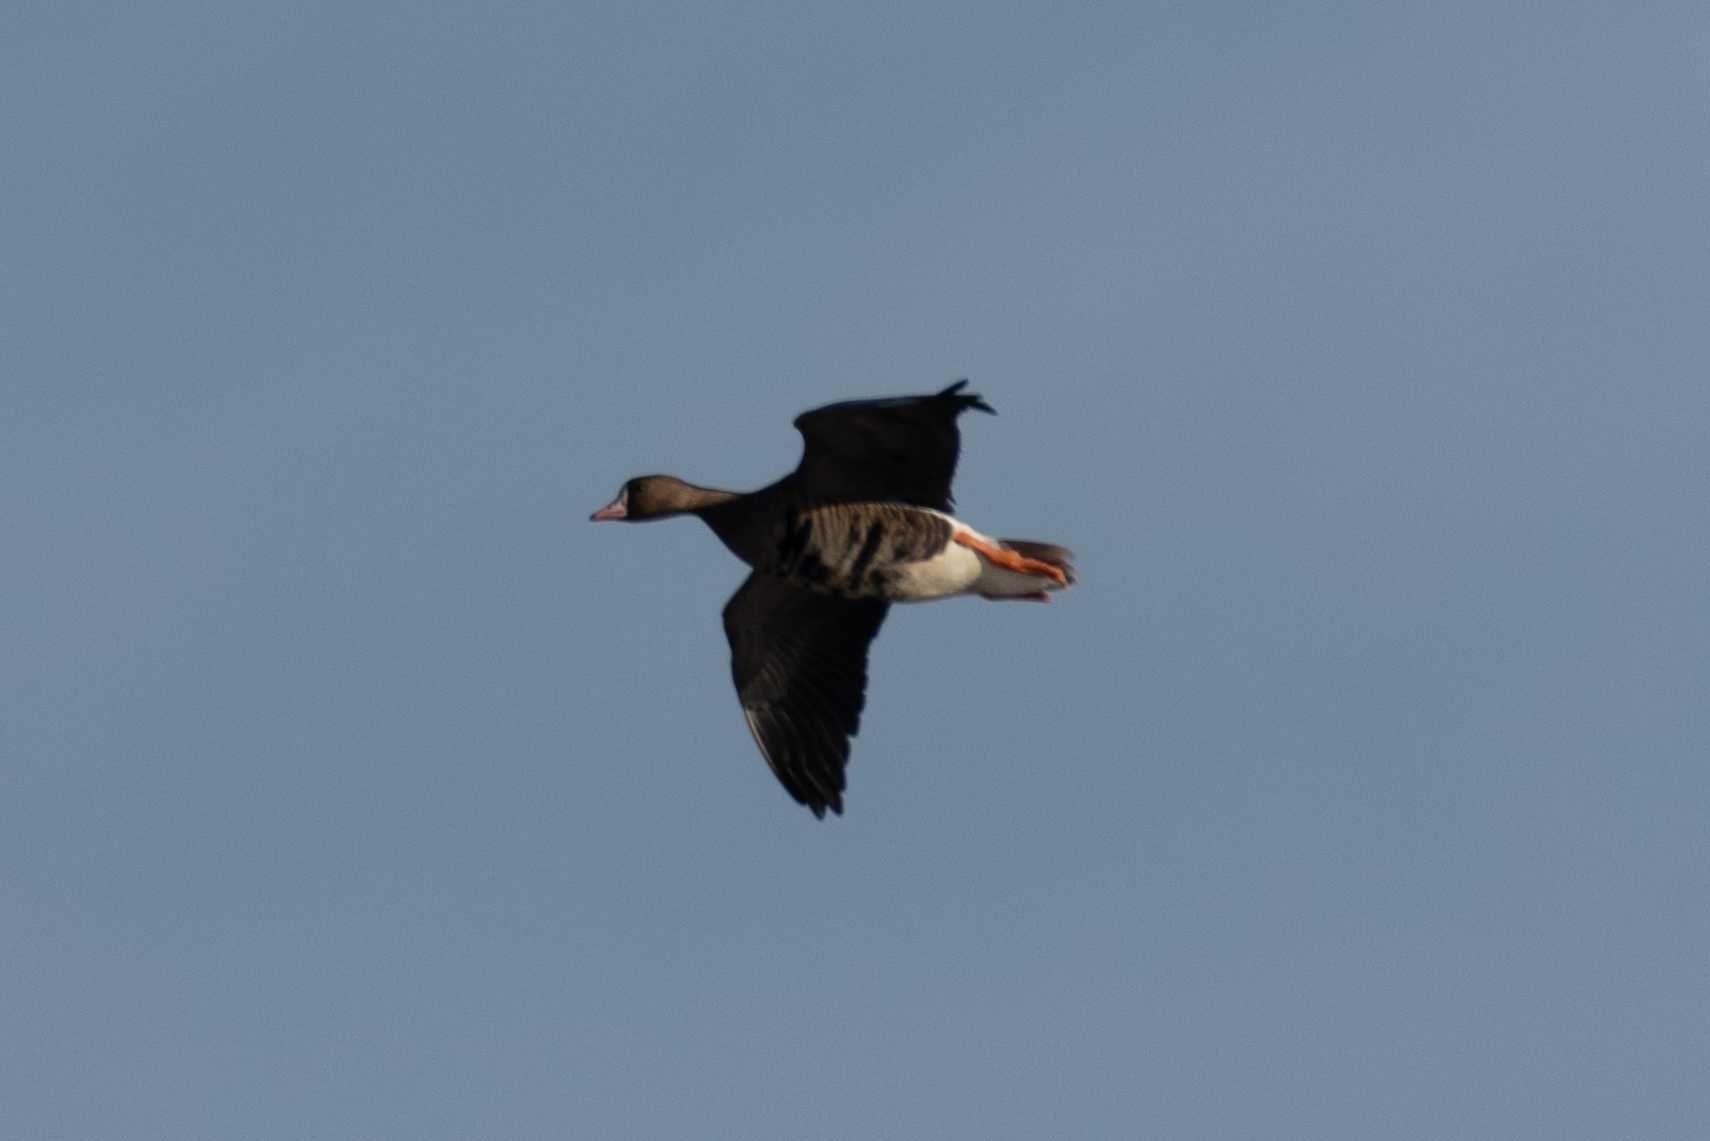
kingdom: Animalia
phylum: Chordata
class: Aves
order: Anseriformes
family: Anatidae
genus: Anser
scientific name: Anser albifrons
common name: Greater white-fronted goose
